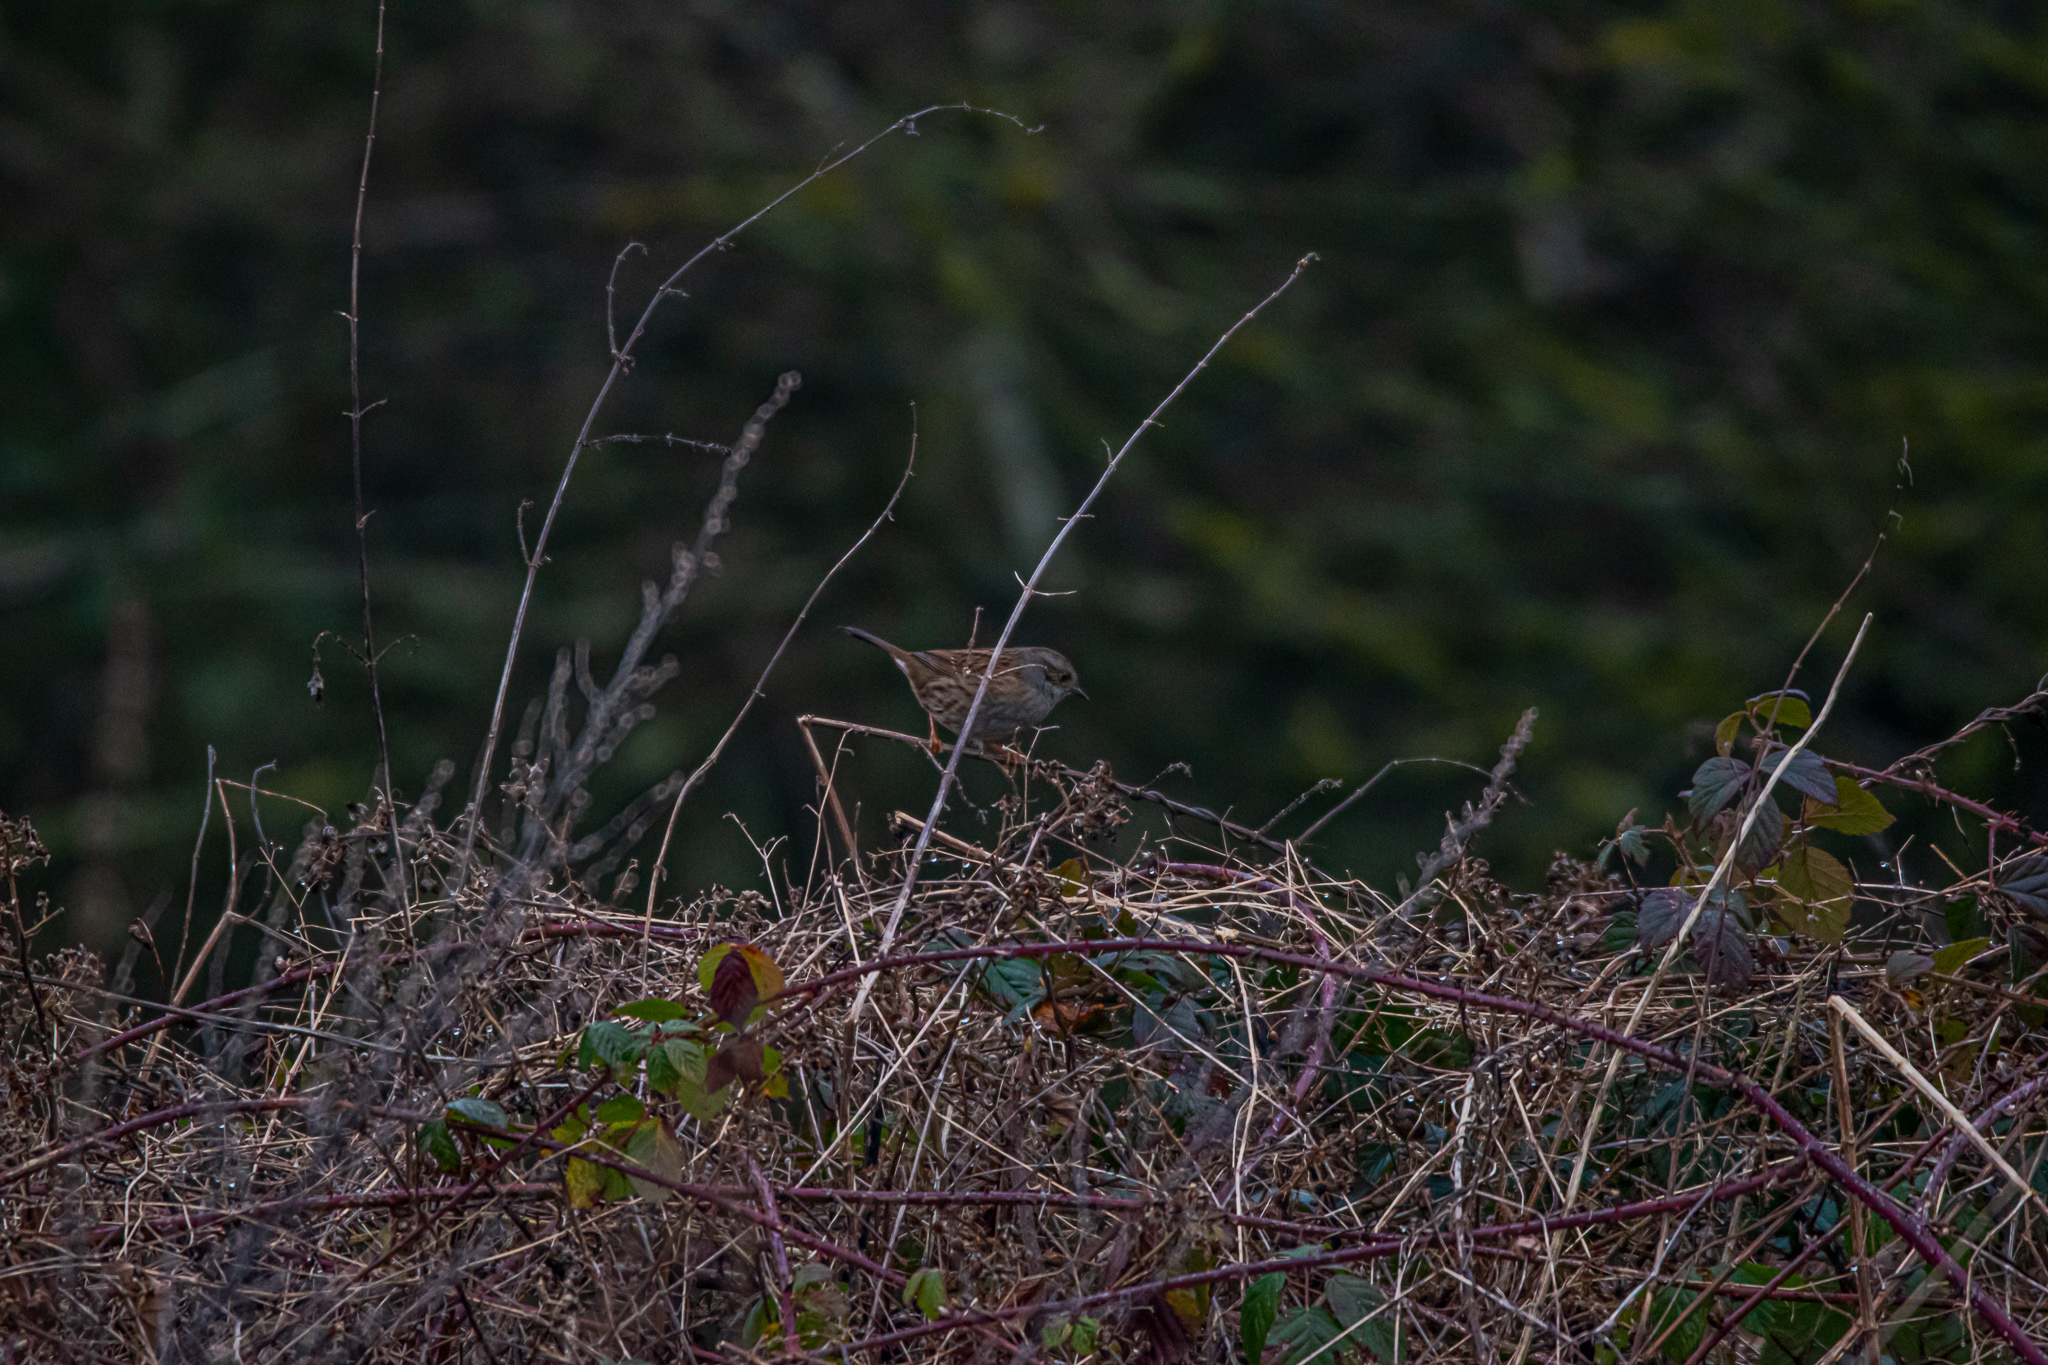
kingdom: Animalia
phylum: Chordata
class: Aves
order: Passeriformes
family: Prunellidae
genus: Prunella
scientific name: Prunella modularis
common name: Dunnock
